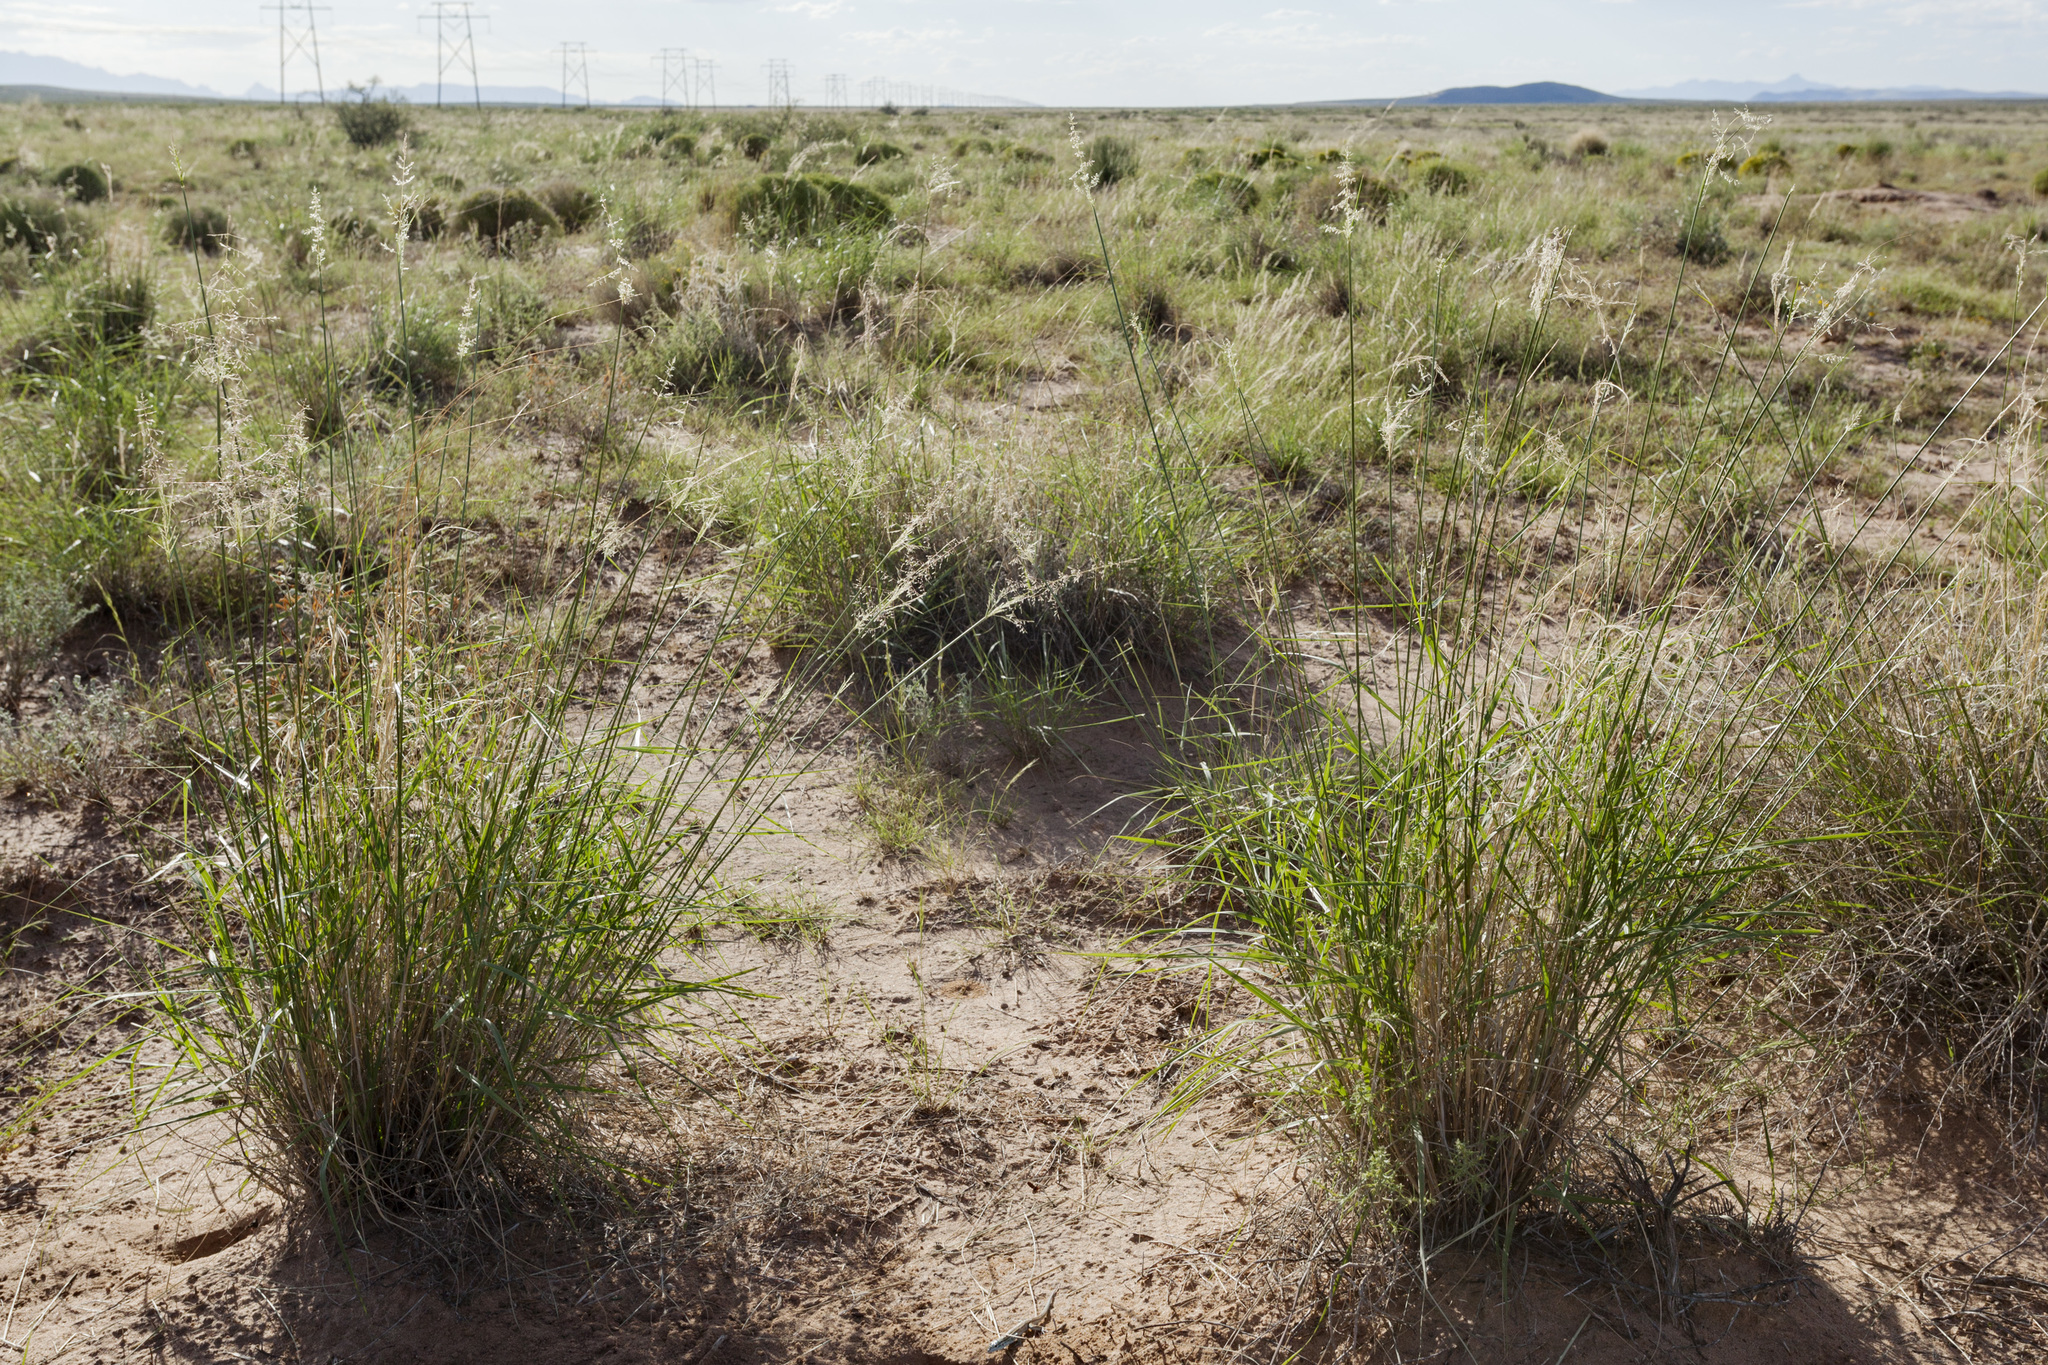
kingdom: Plantae
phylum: Tracheophyta
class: Liliopsida
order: Poales
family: Poaceae
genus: Sporobolus
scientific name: Sporobolus flexuosus
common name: Mesa dropseed
